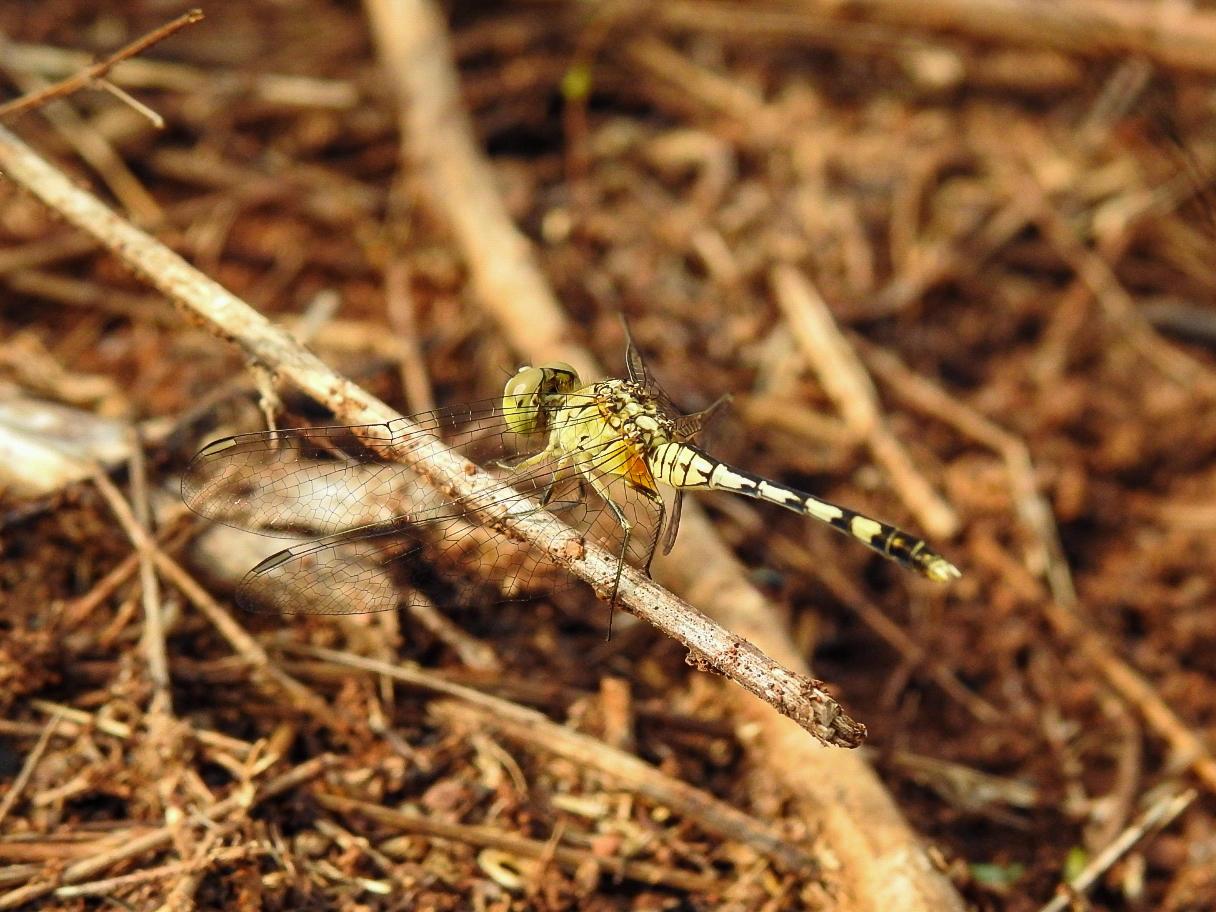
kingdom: Animalia
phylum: Arthropoda
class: Insecta
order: Odonata
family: Libellulidae
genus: Diplacodes
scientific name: Diplacodes trivialis
